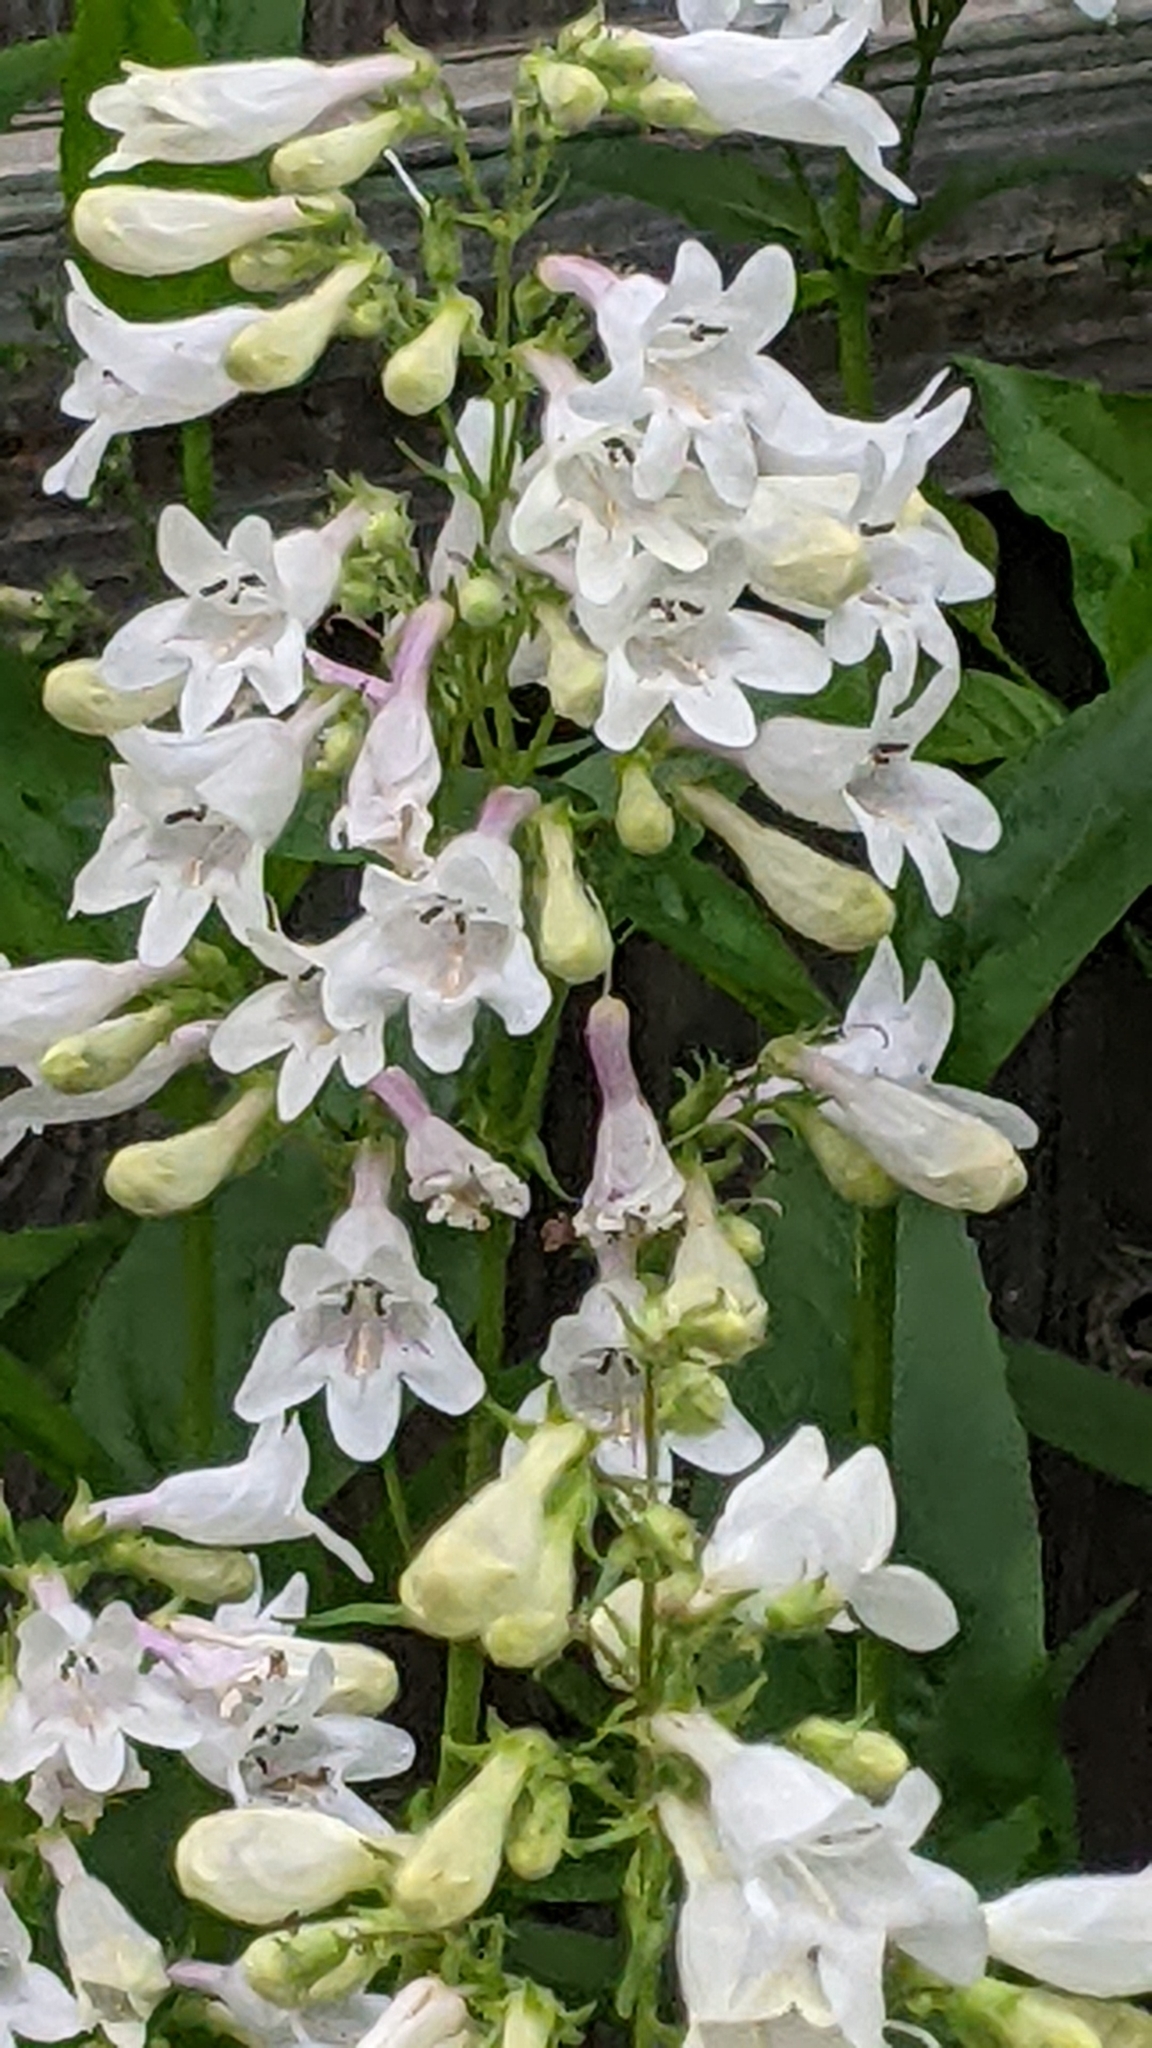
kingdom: Animalia
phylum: Arthropoda
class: Insecta
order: Hymenoptera
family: Apidae
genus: Bombus
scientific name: Bombus bimaculatus
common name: Two-spotted bumble bee
